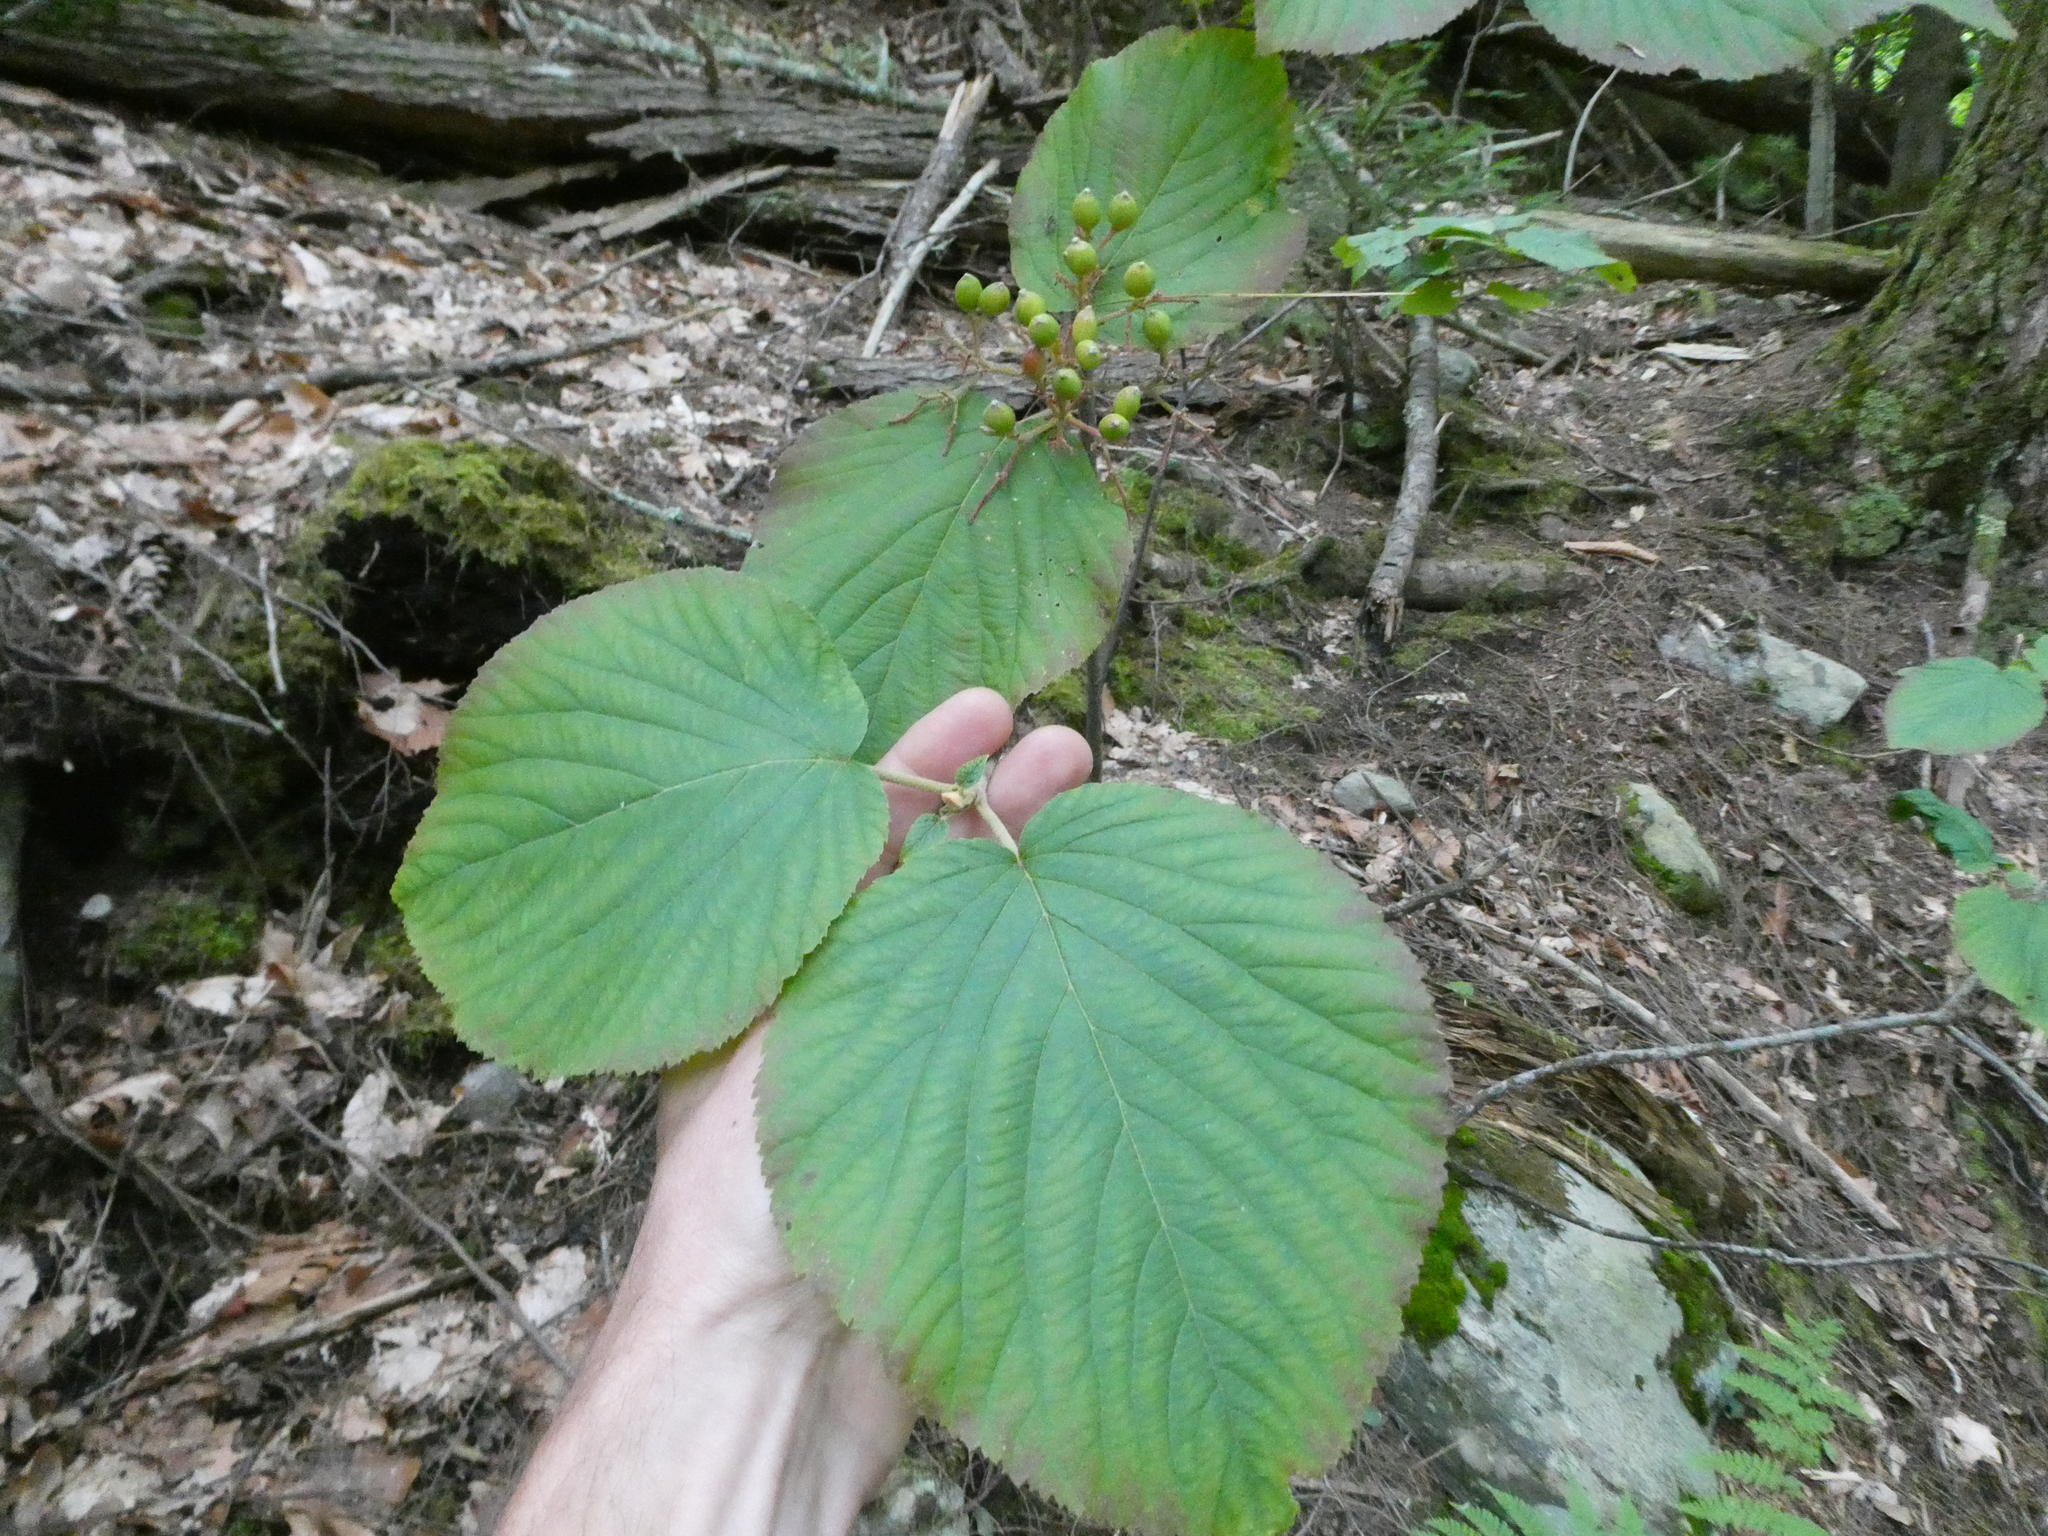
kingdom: Plantae
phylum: Tracheophyta
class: Magnoliopsida
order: Dipsacales
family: Viburnaceae
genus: Viburnum
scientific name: Viburnum lantanoides
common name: Hobblebush
